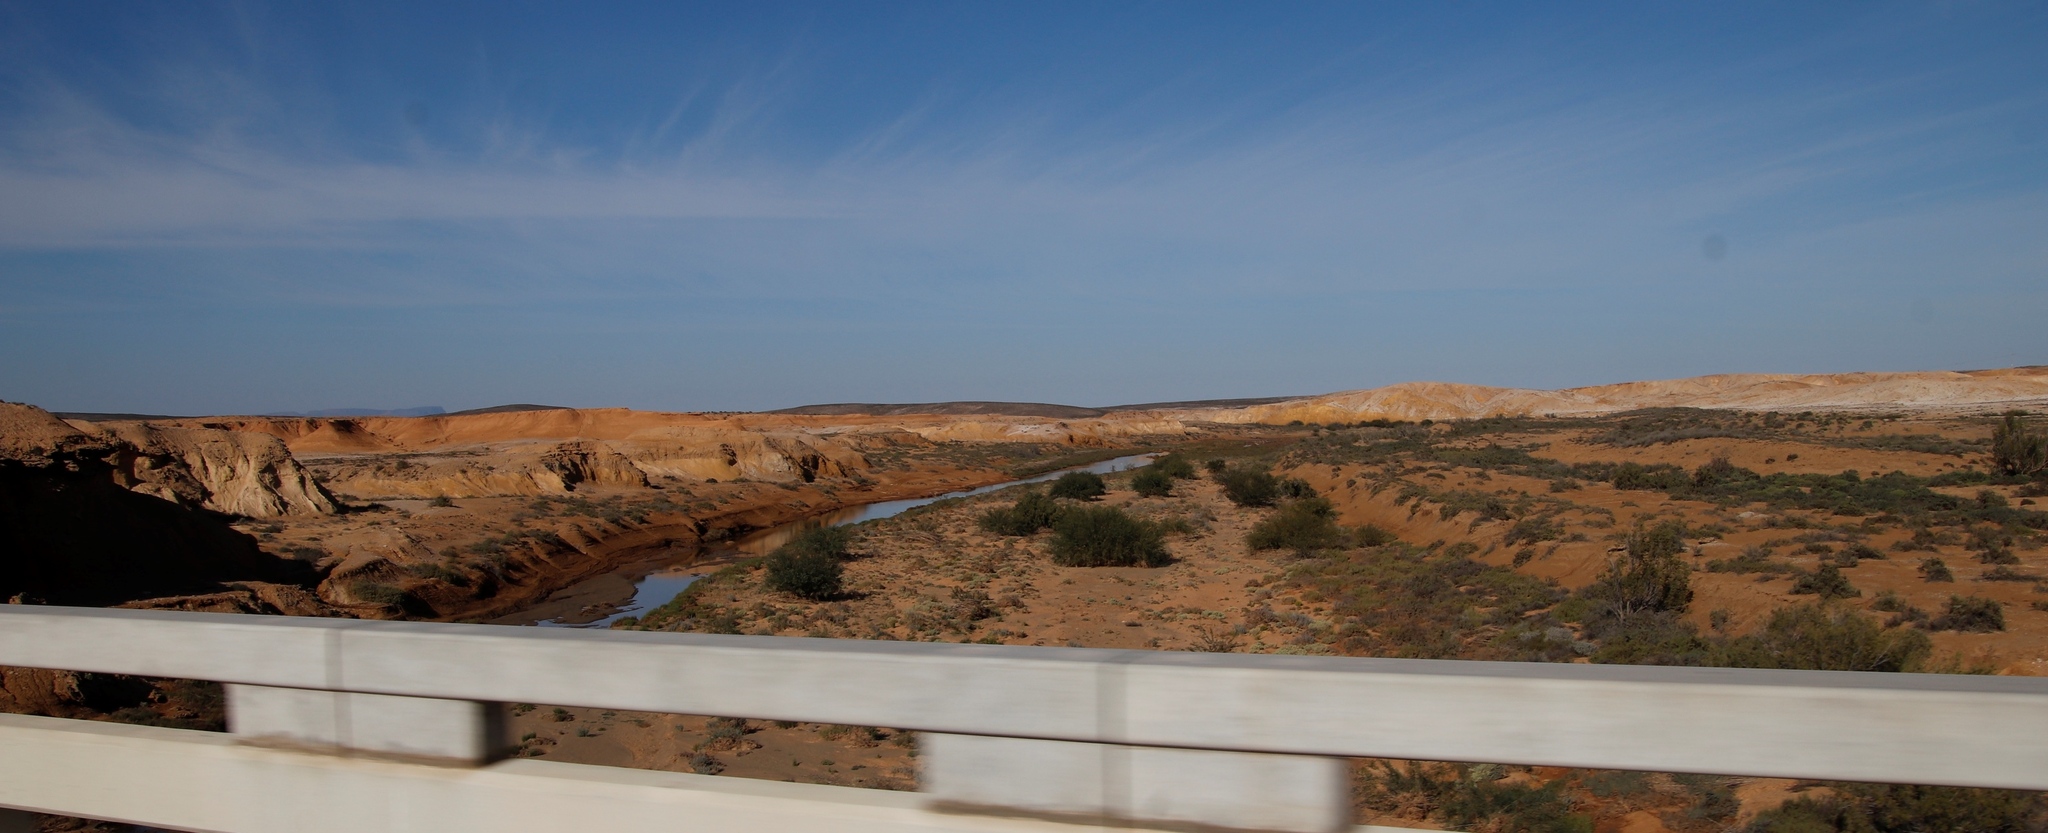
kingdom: Plantae
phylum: Tracheophyta
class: Magnoliopsida
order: Fabales
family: Fabaceae
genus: Vachellia
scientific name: Vachellia karroo
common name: Sweet thorn
